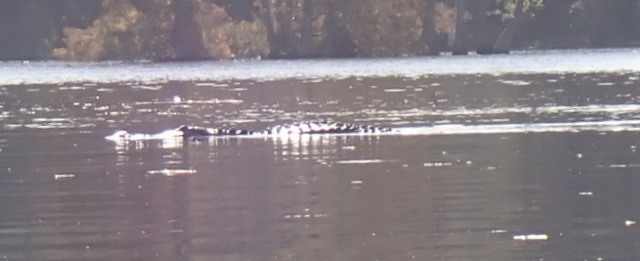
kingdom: Animalia
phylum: Chordata
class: Crocodylia
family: Alligatoridae
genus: Alligator
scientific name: Alligator mississippiensis
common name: American alligator
